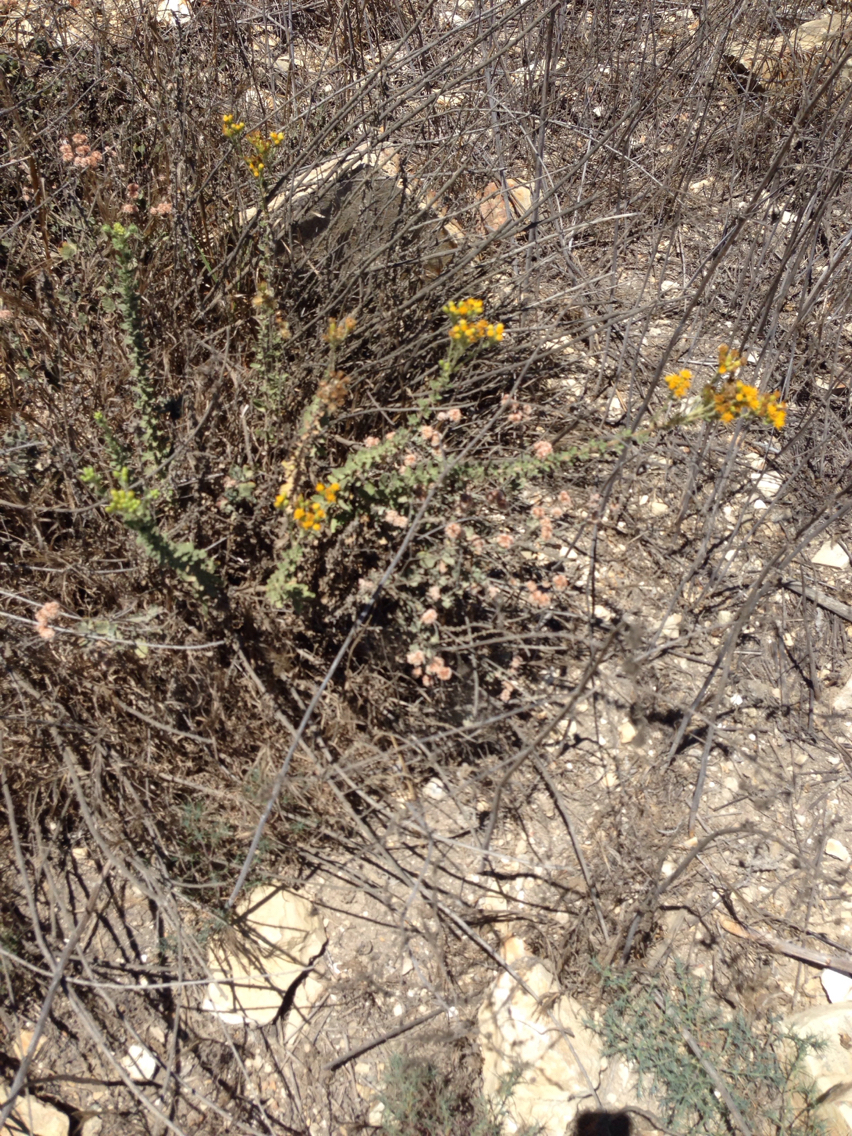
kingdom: Plantae
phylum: Tracheophyta
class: Magnoliopsida
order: Asterales
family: Asteraceae
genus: Isocoma
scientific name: Isocoma menziesii
